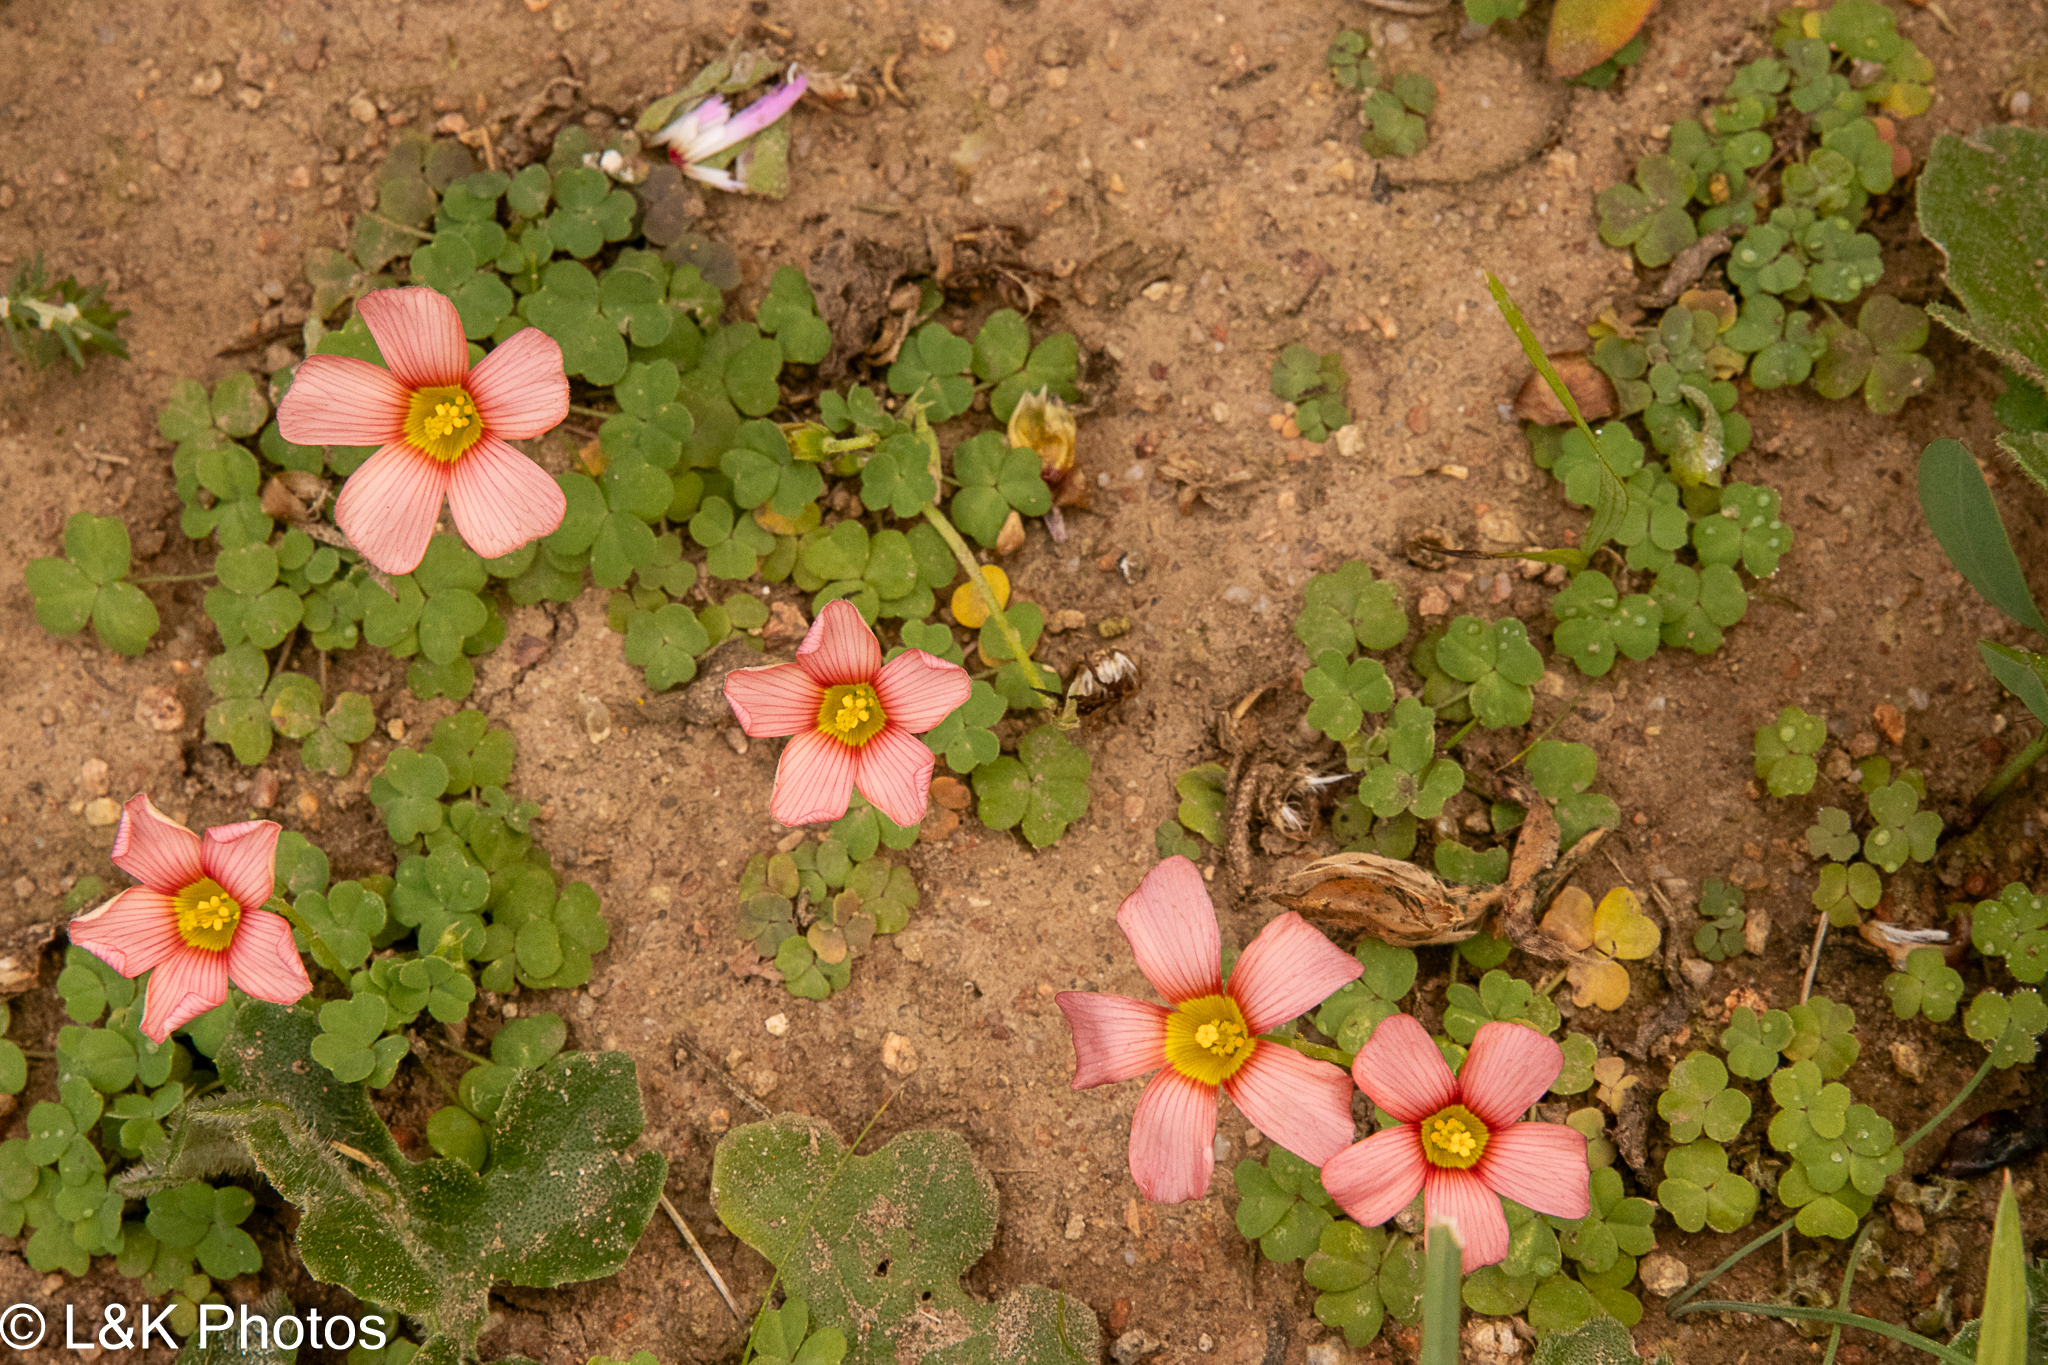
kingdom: Plantae
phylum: Tracheophyta
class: Magnoliopsida
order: Oxalidales
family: Oxalidaceae
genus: Oxalis
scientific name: Oxalis obtusa
